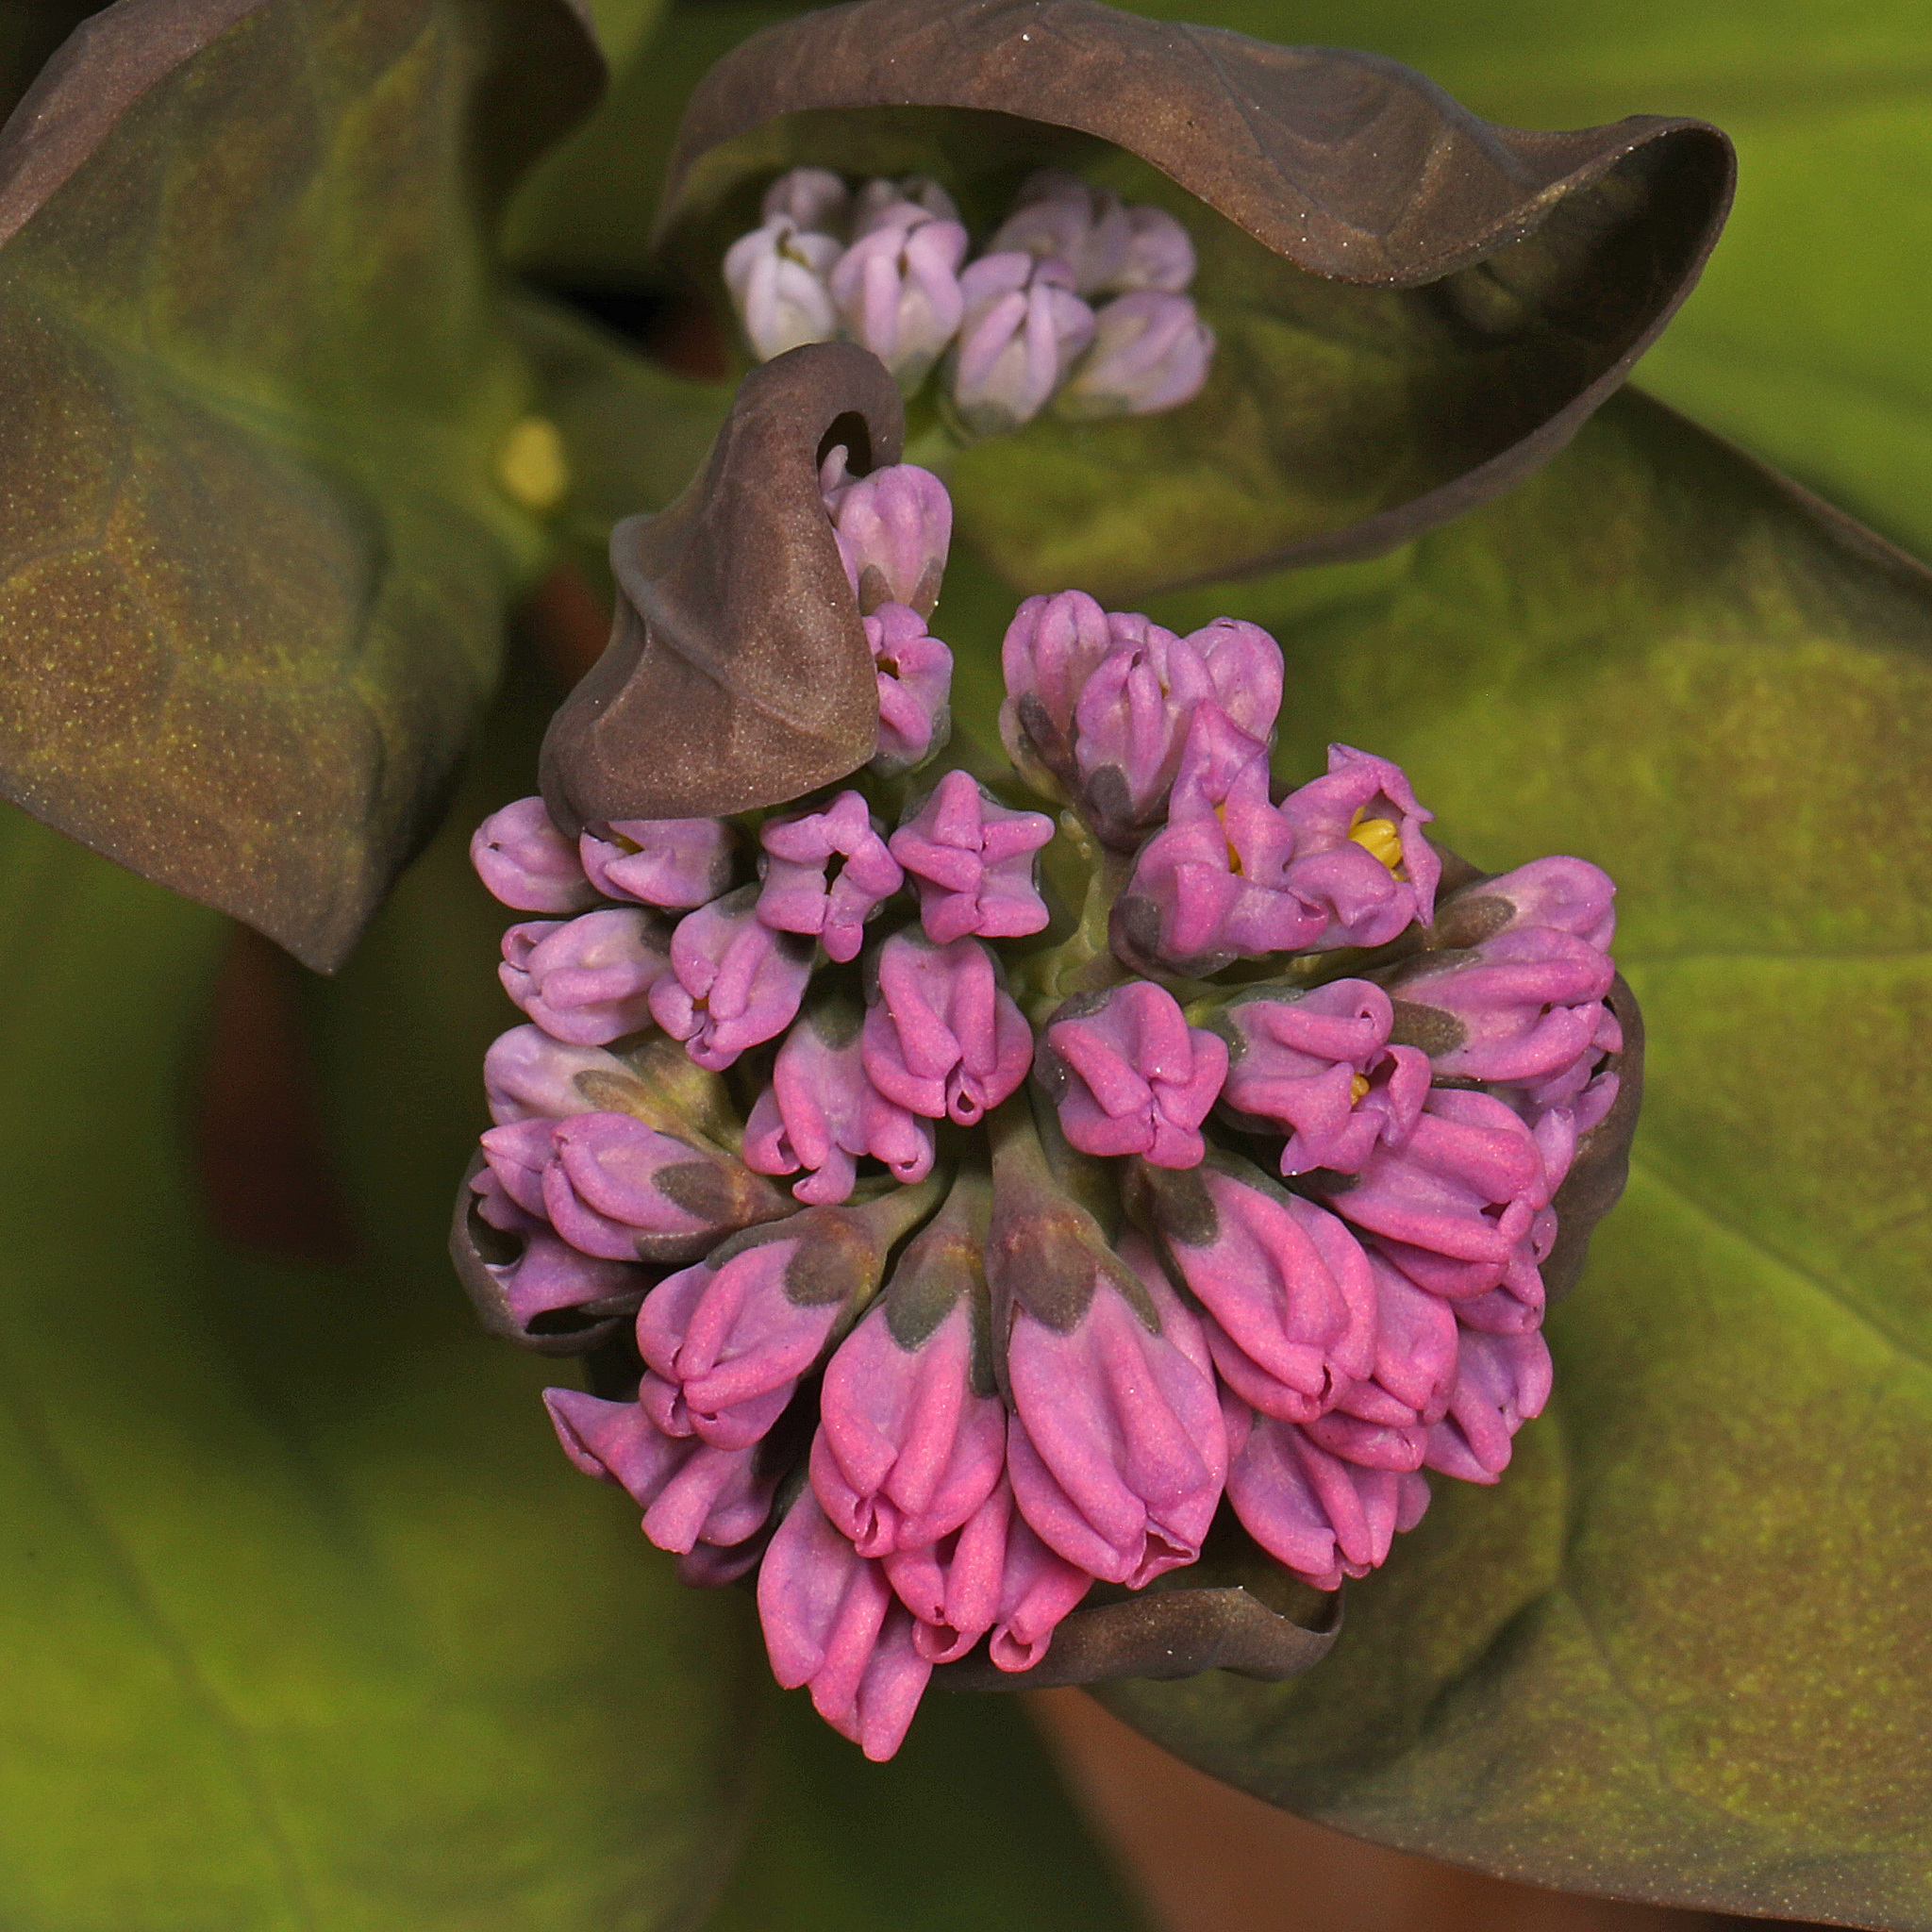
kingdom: Plantae
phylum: Tracheophyta
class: Magnoliopsida
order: Boraginales
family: Boraginaceae
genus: Mertensia
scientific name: Mertensia virginica
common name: Virginia bluebells
